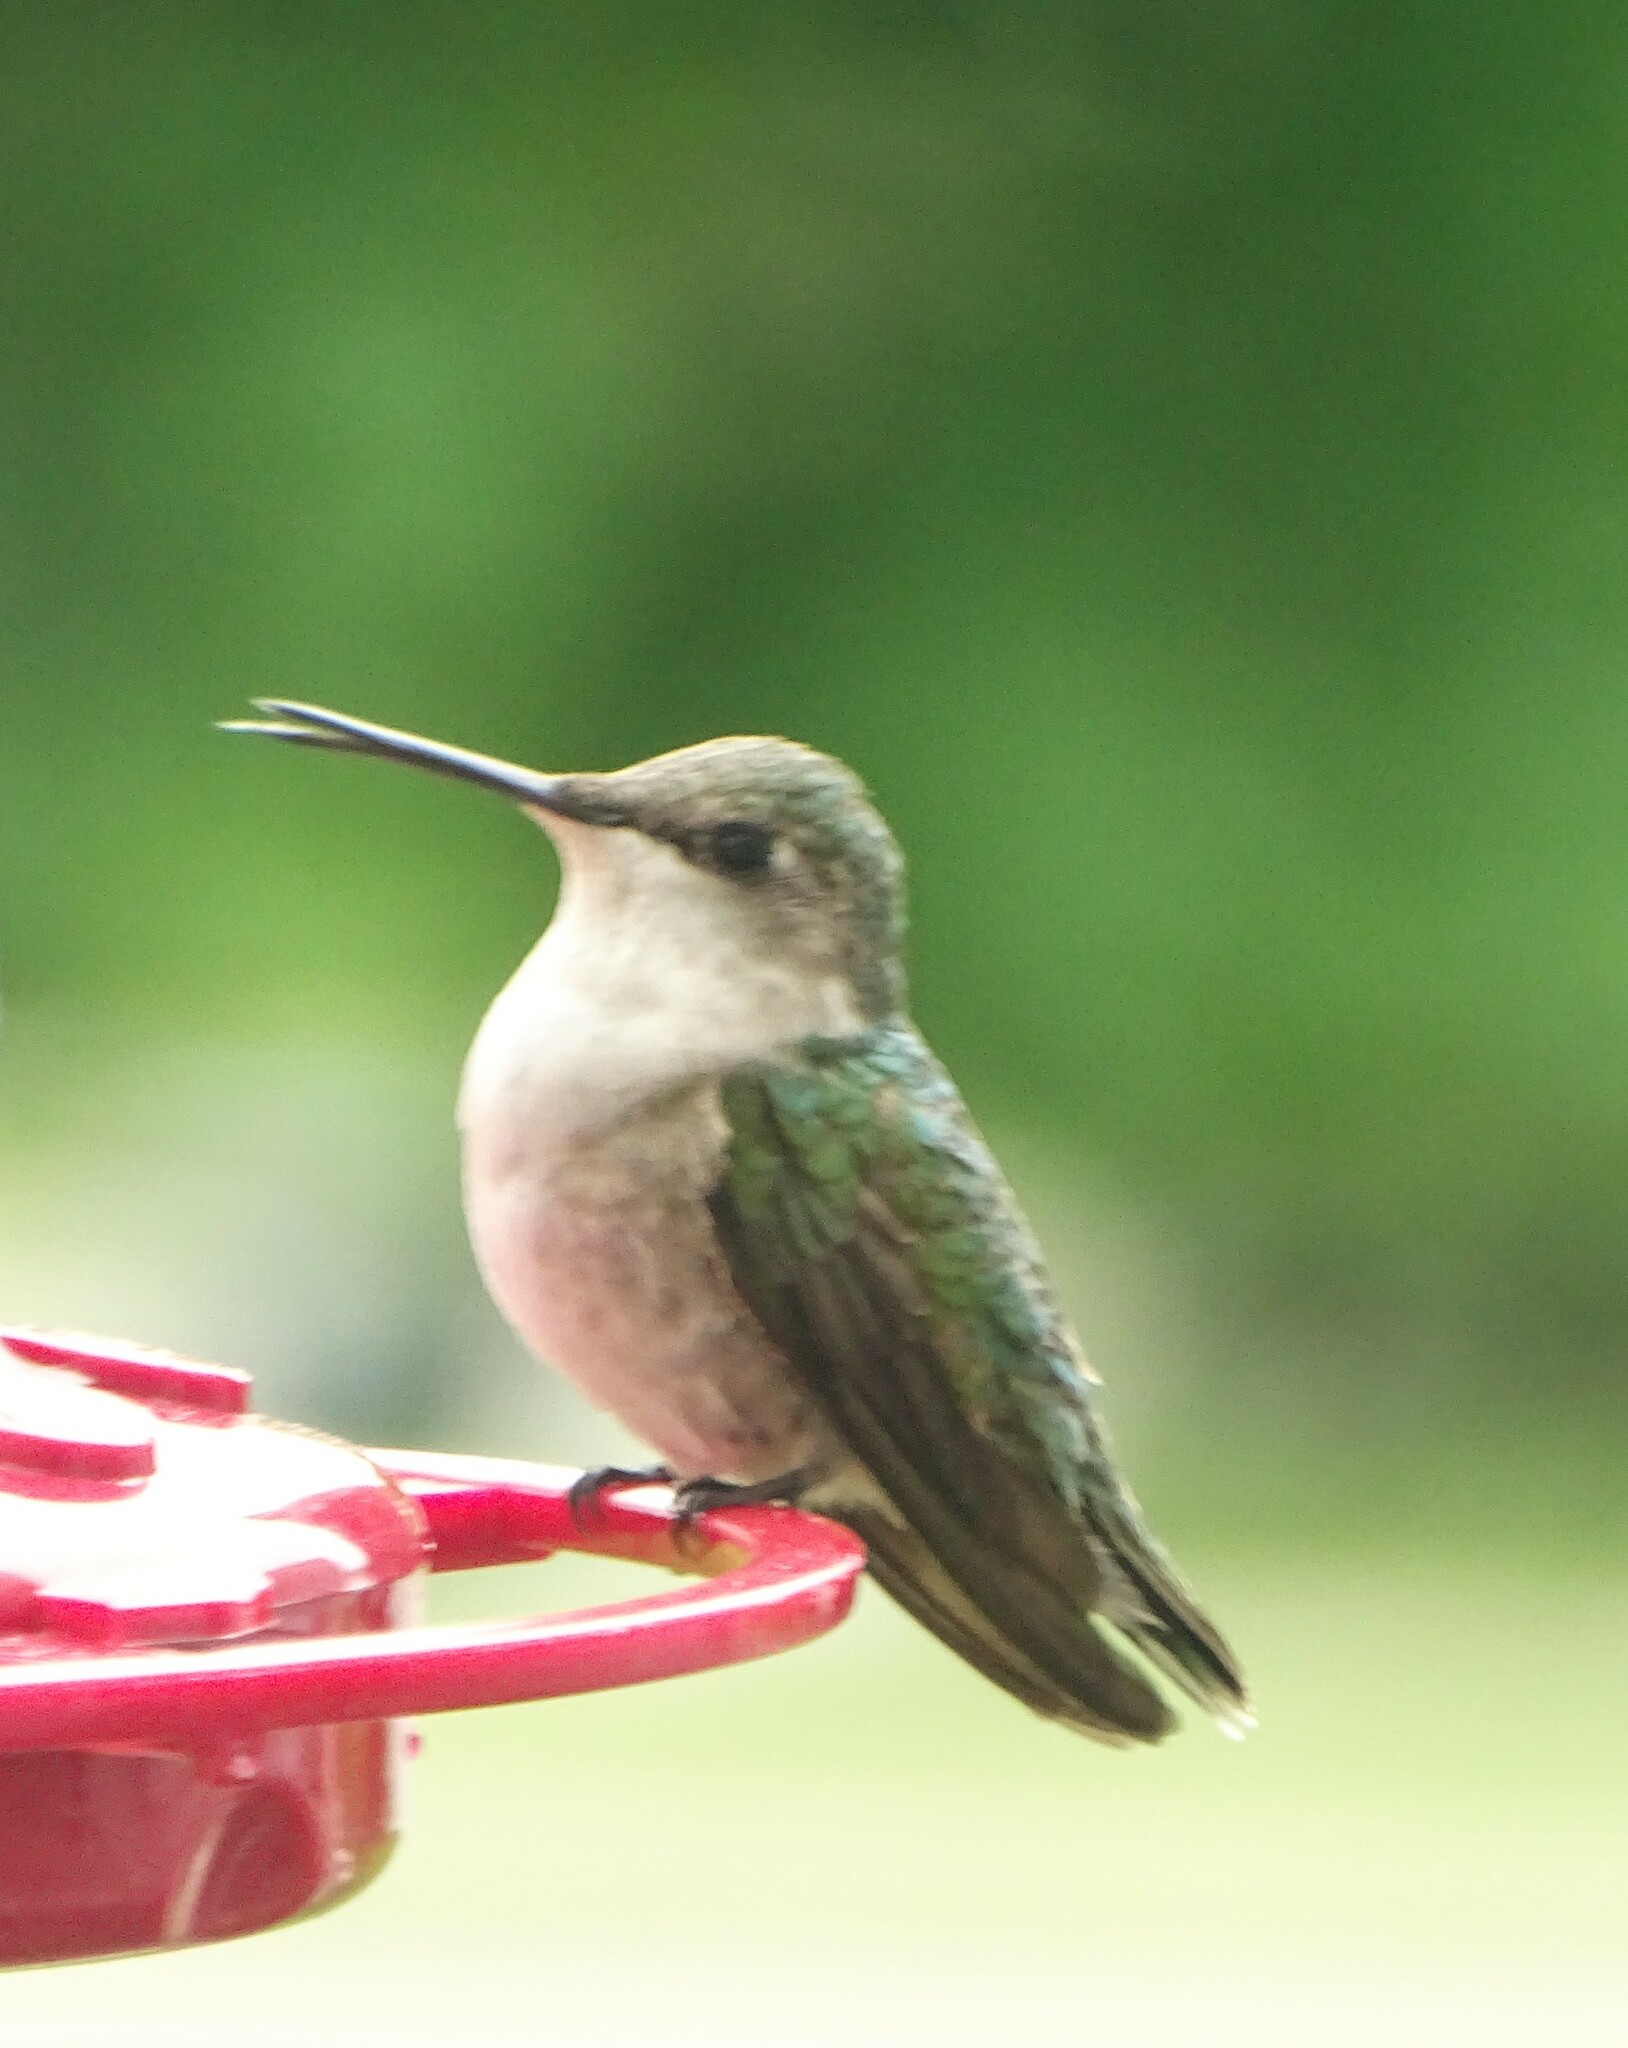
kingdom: Animalia
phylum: Chordata
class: Aves
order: Apodiformes
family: Trochilidae
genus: Archilochus
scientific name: Archilochus colubris
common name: Ruby-throated hummingbird
